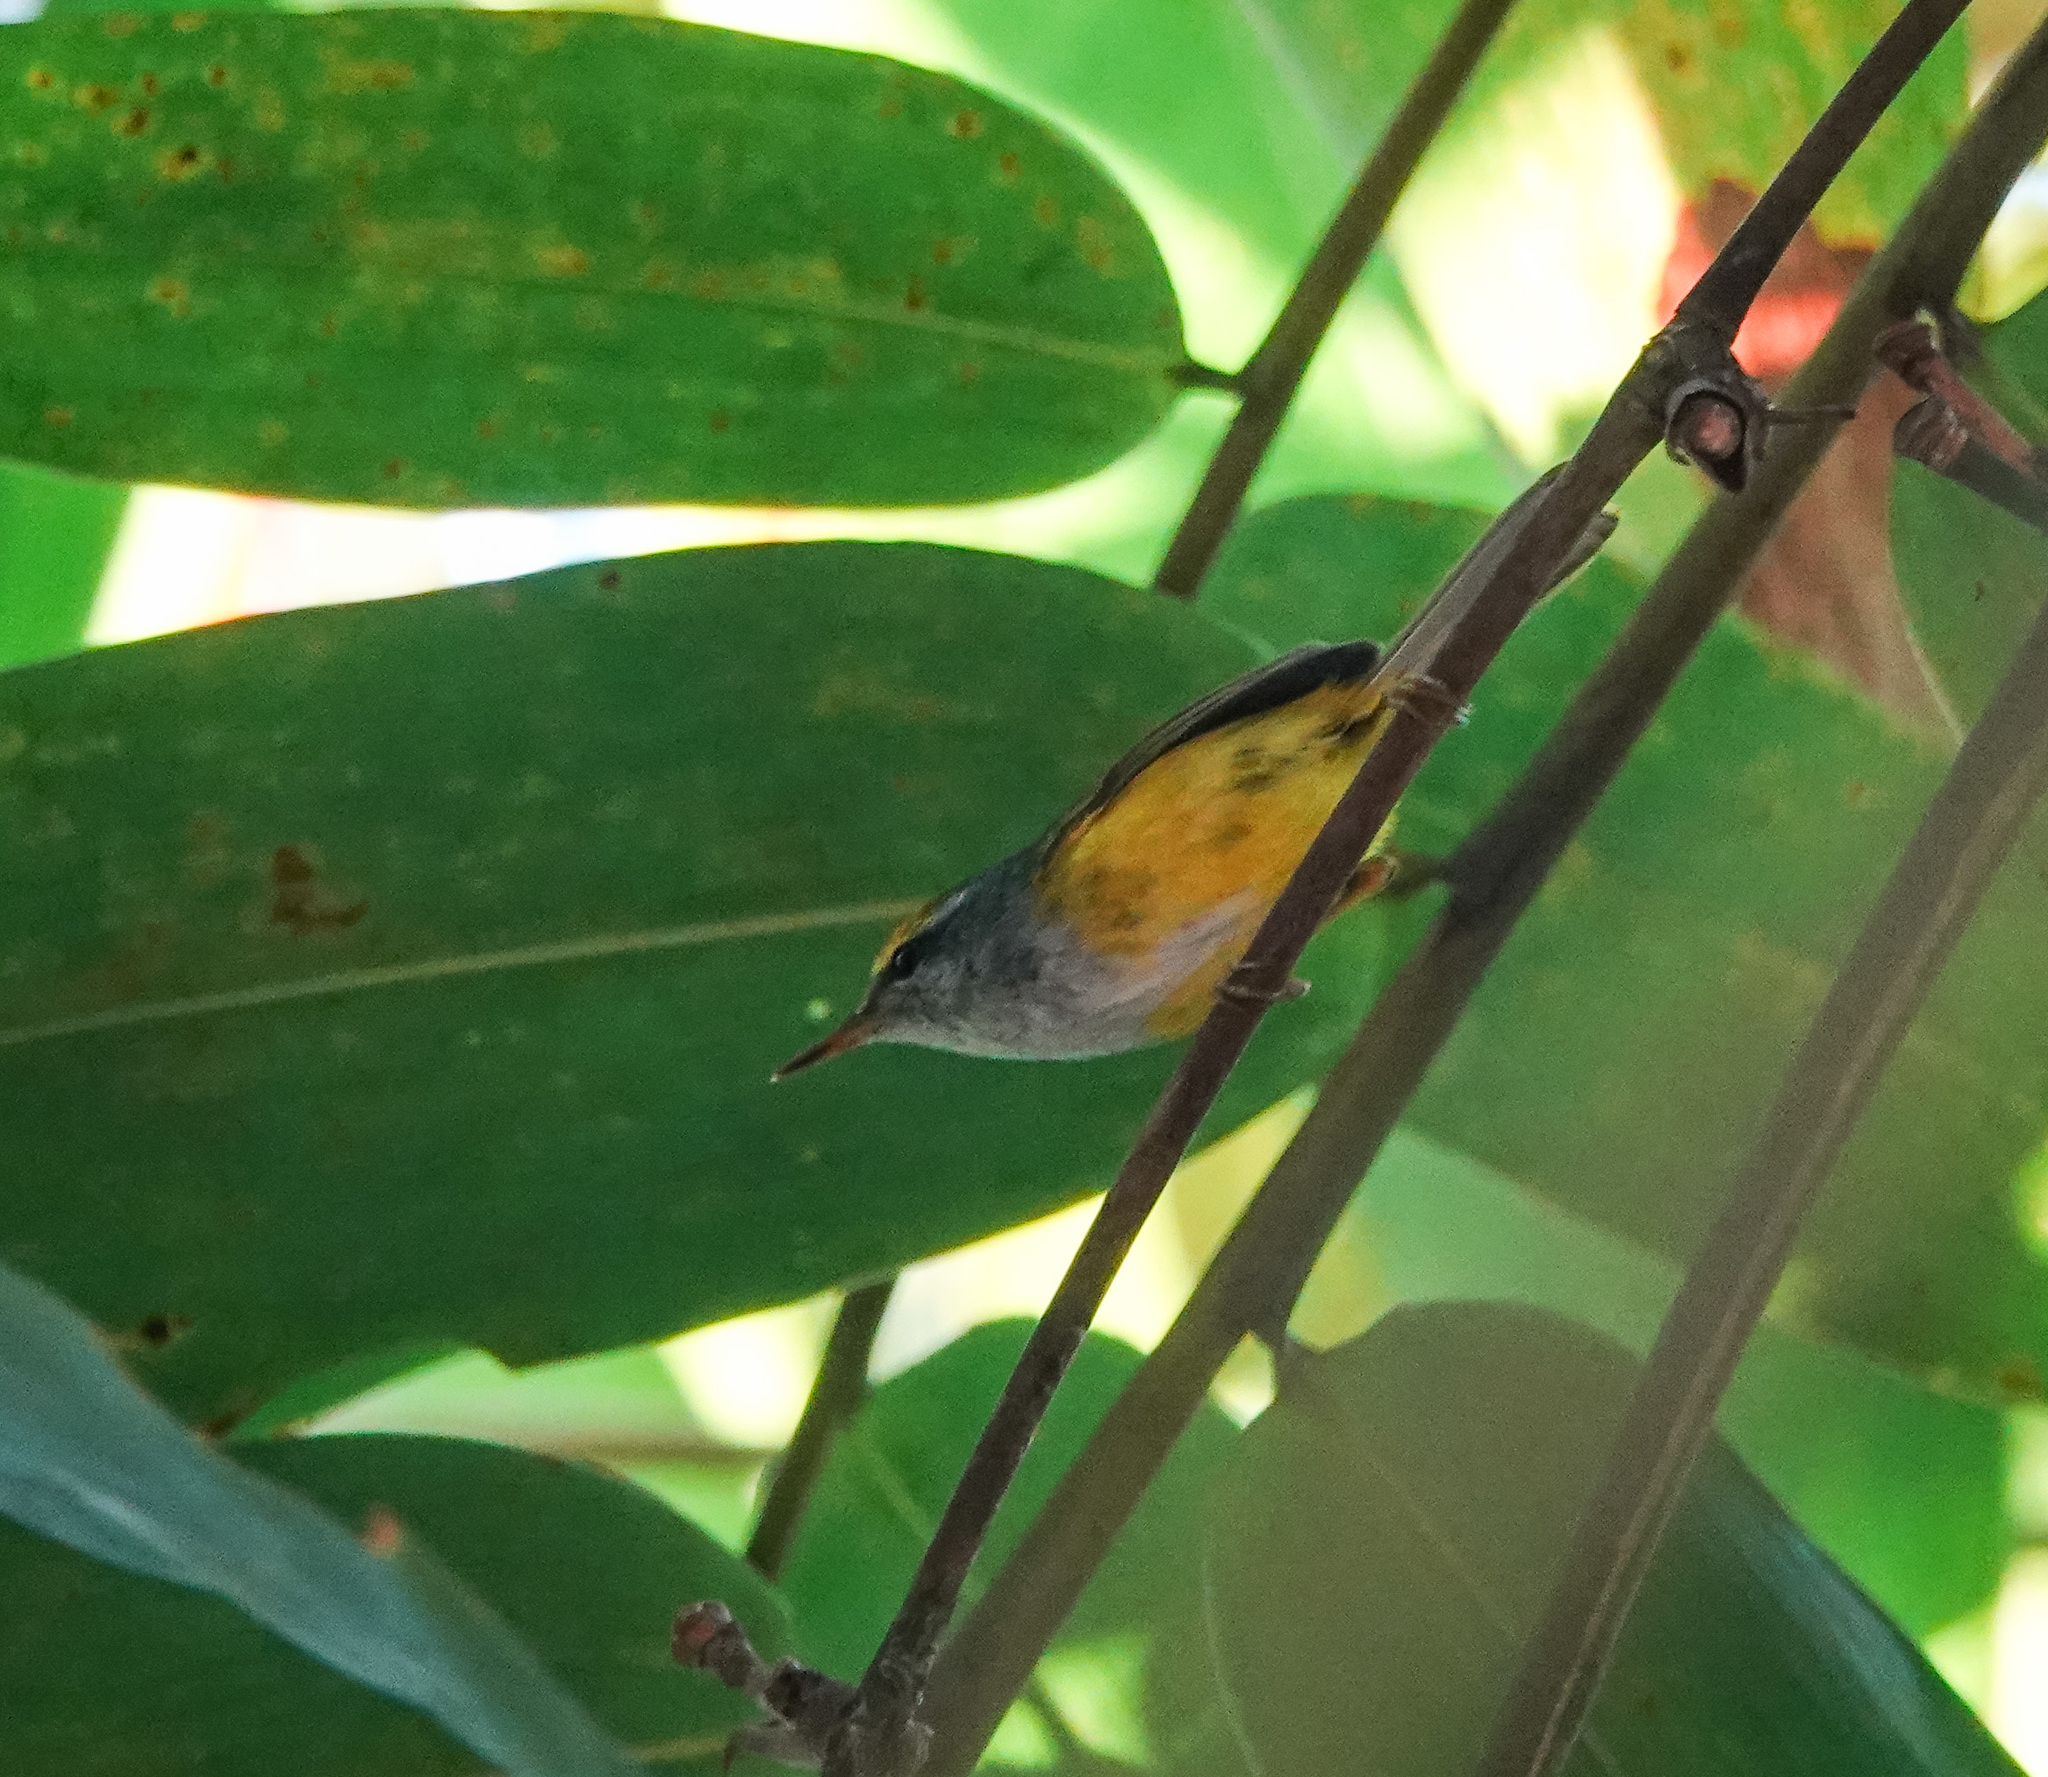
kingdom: Animalia
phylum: Chordata
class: Aves
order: Passeriformes
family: Cettiidae
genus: Phyllergates
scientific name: Phyllergates cuculatus
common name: Mountain tailorbird
